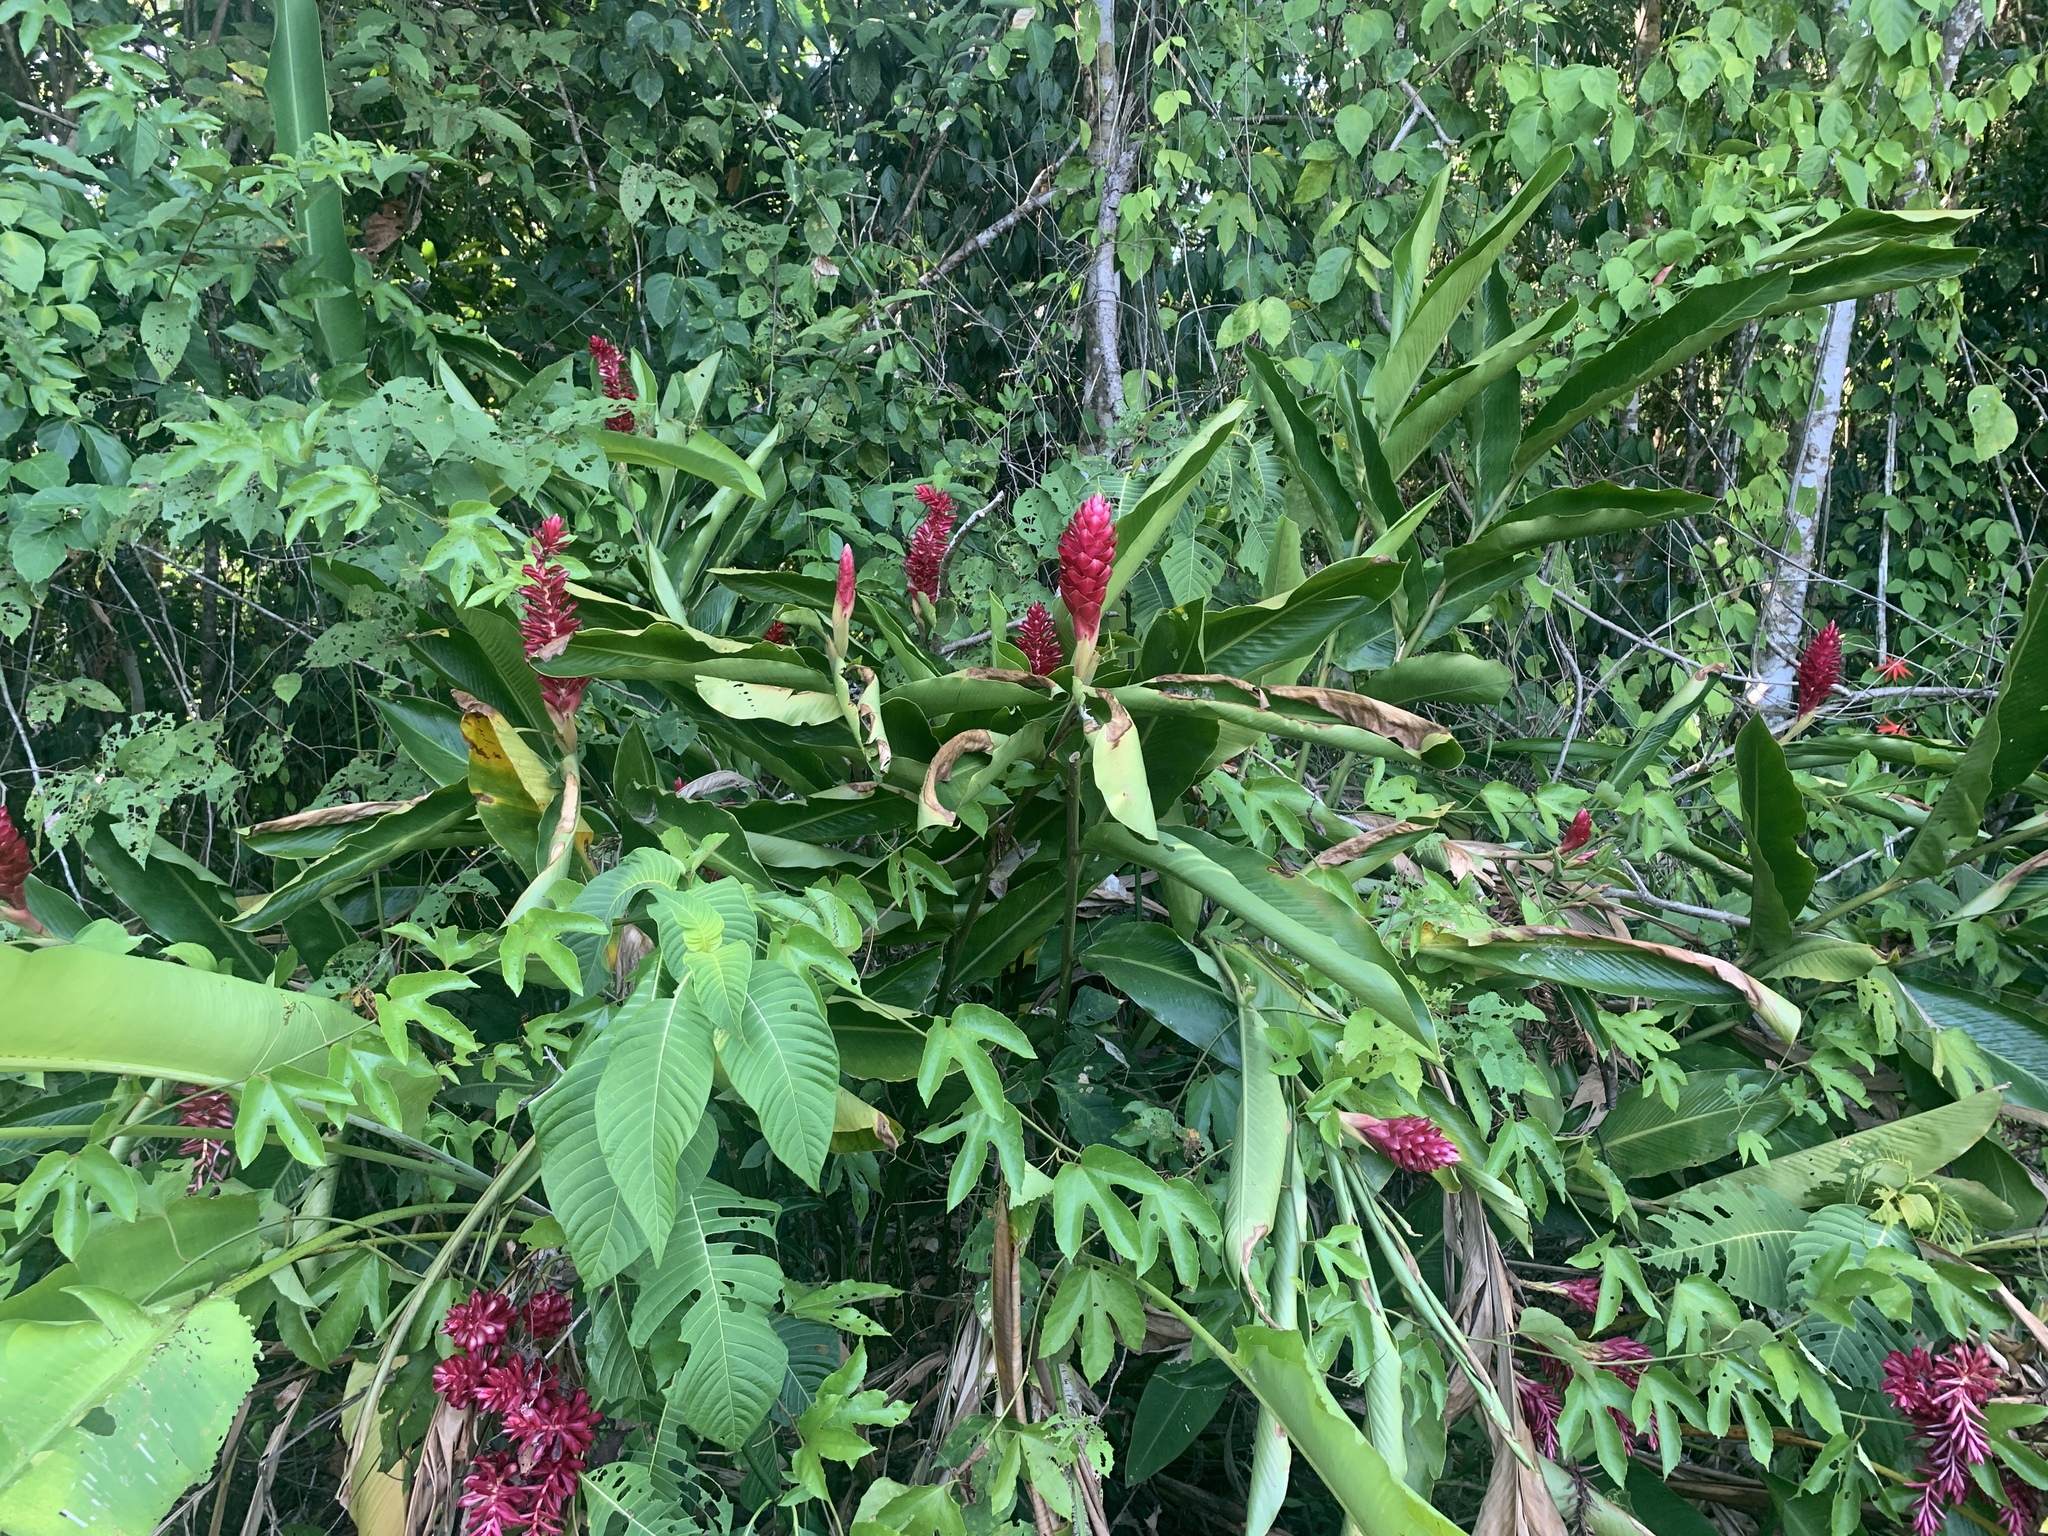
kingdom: Plantae
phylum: Tracheophyta
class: Liliopsida
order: Zingiberales
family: Zingiberaceae
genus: Alpinia
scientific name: Alpinia purpurata
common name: Red ginger
